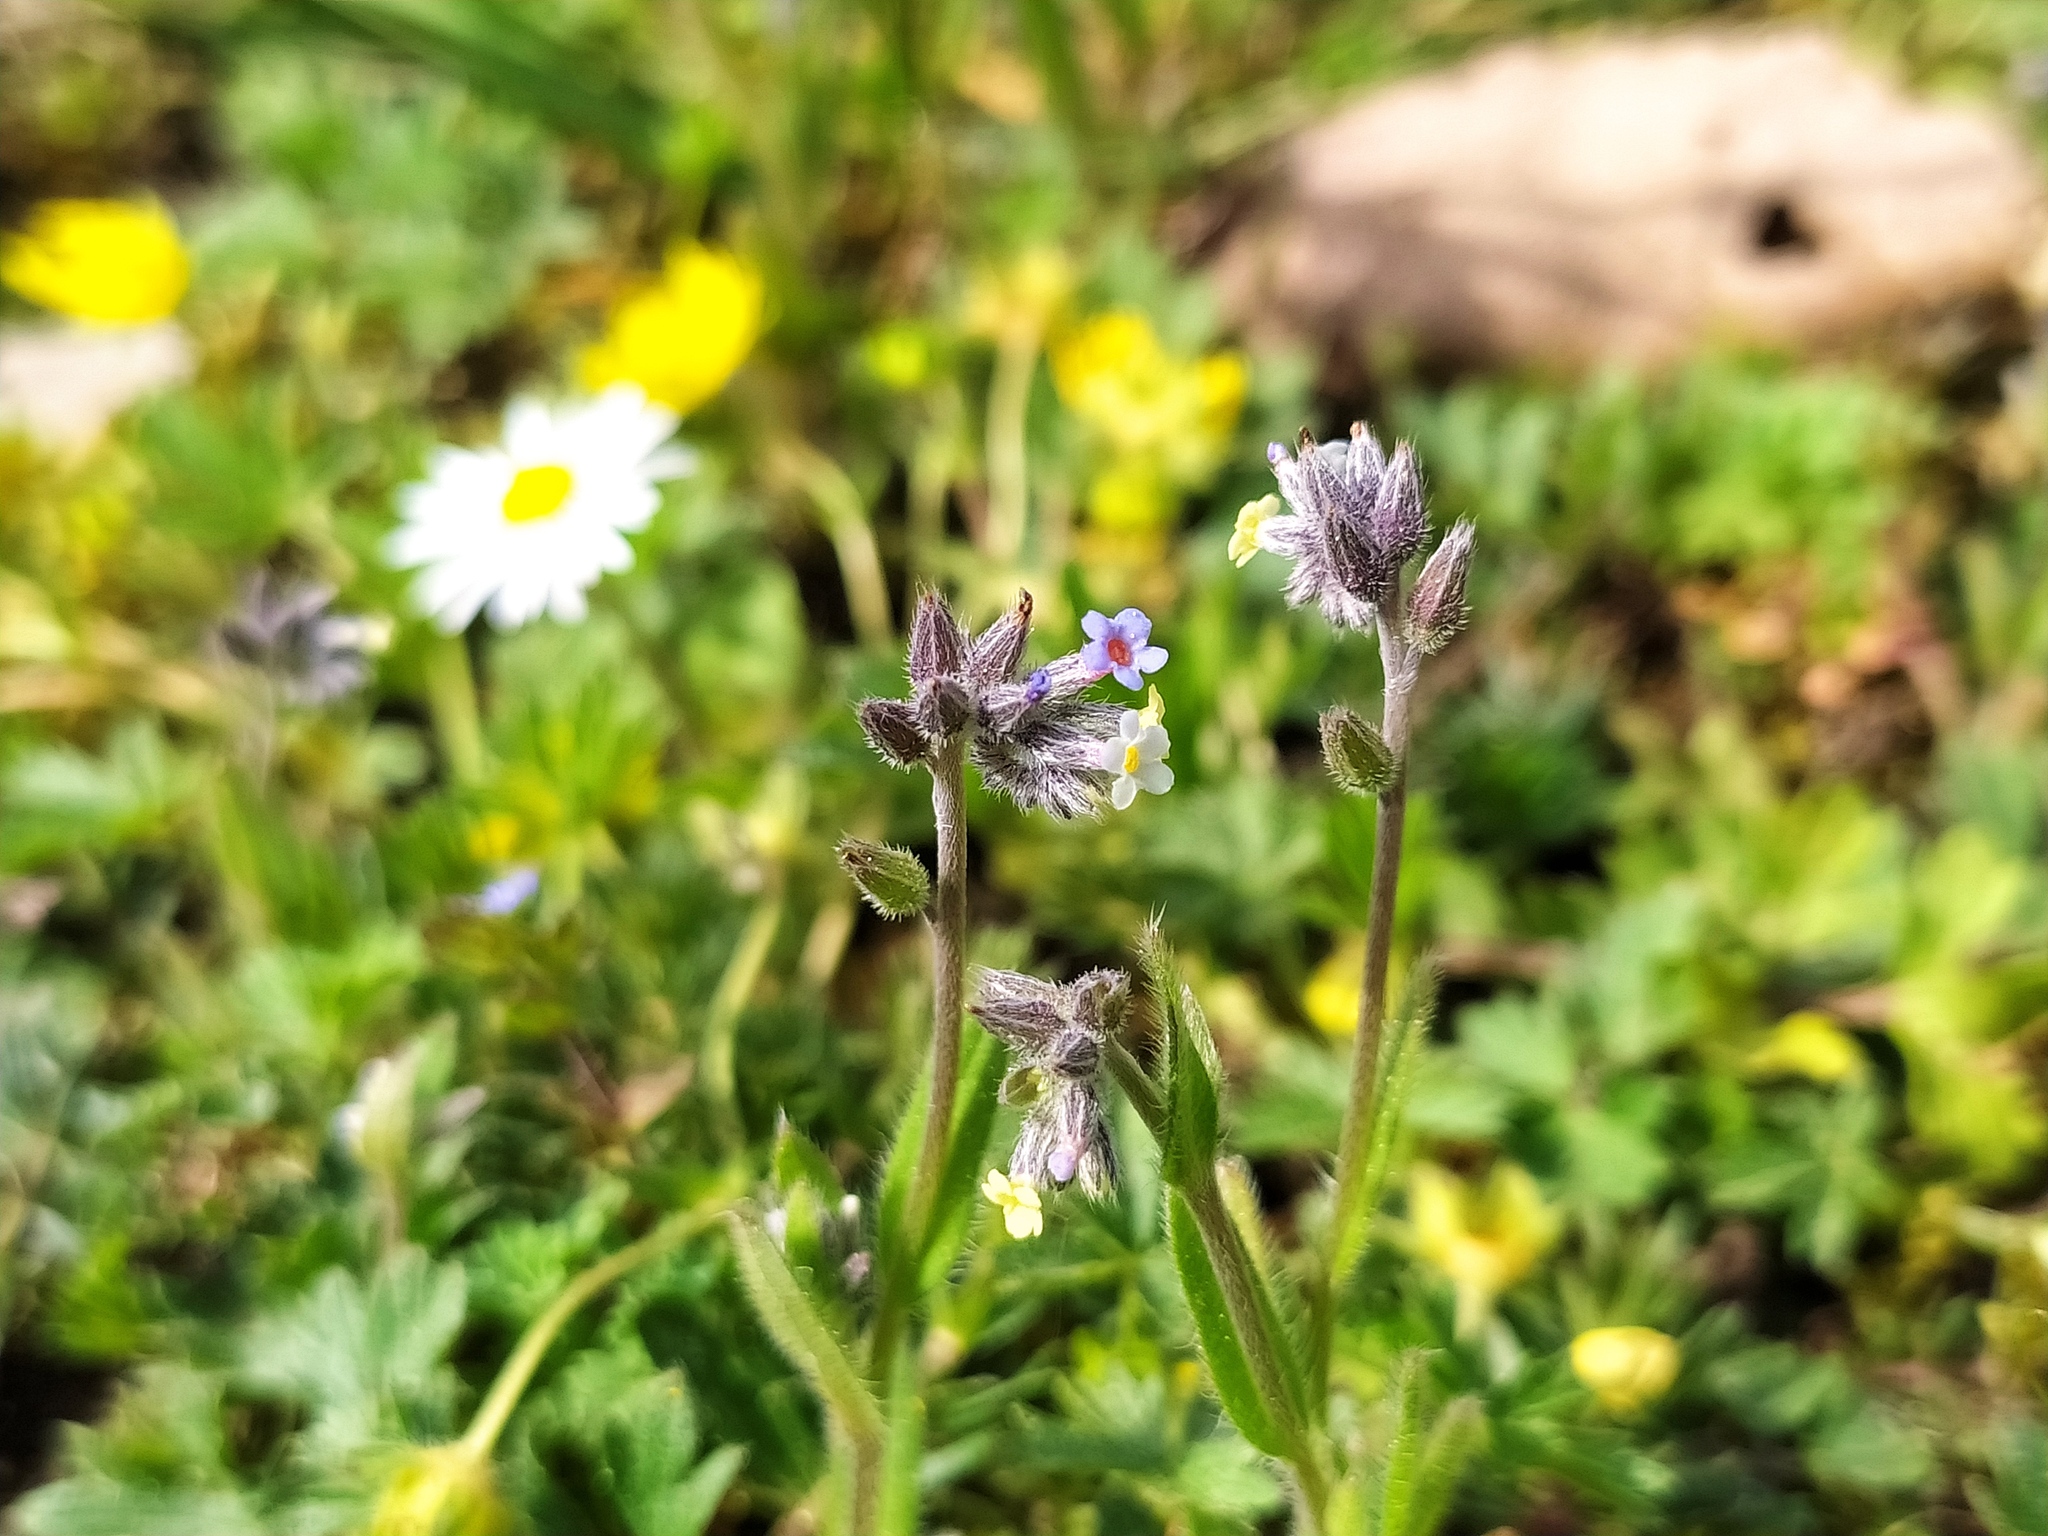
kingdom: Plantae
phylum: Tracheophyta
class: Magnoliopsida
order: Boraginales
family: Boraginaceae
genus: Myosotis
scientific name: Myosotis discolor
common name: Changing forget-me-not
